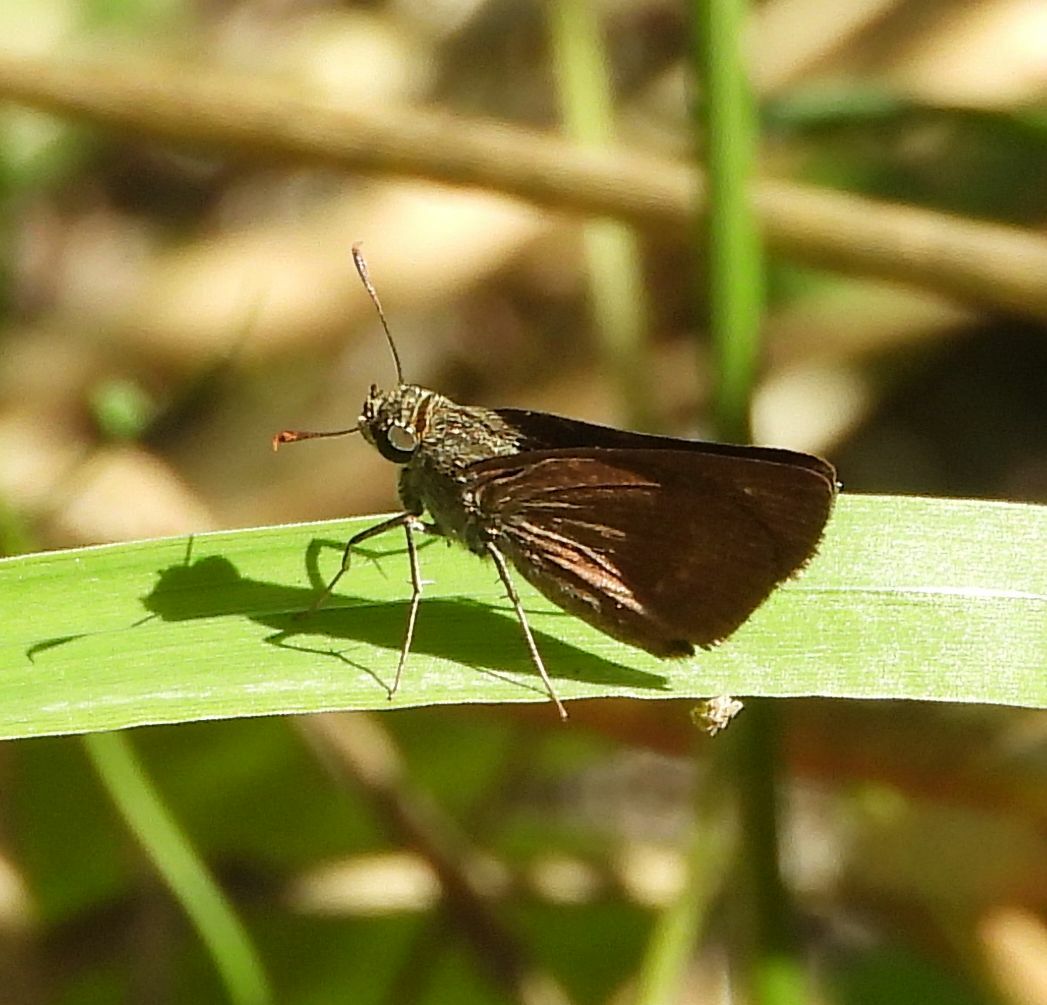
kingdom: Animalia
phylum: Arthropoda
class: Insecta
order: Lepidoptera
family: Hesperiidae
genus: Euphyes
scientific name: Euphyes vestris
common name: Dun skipper
